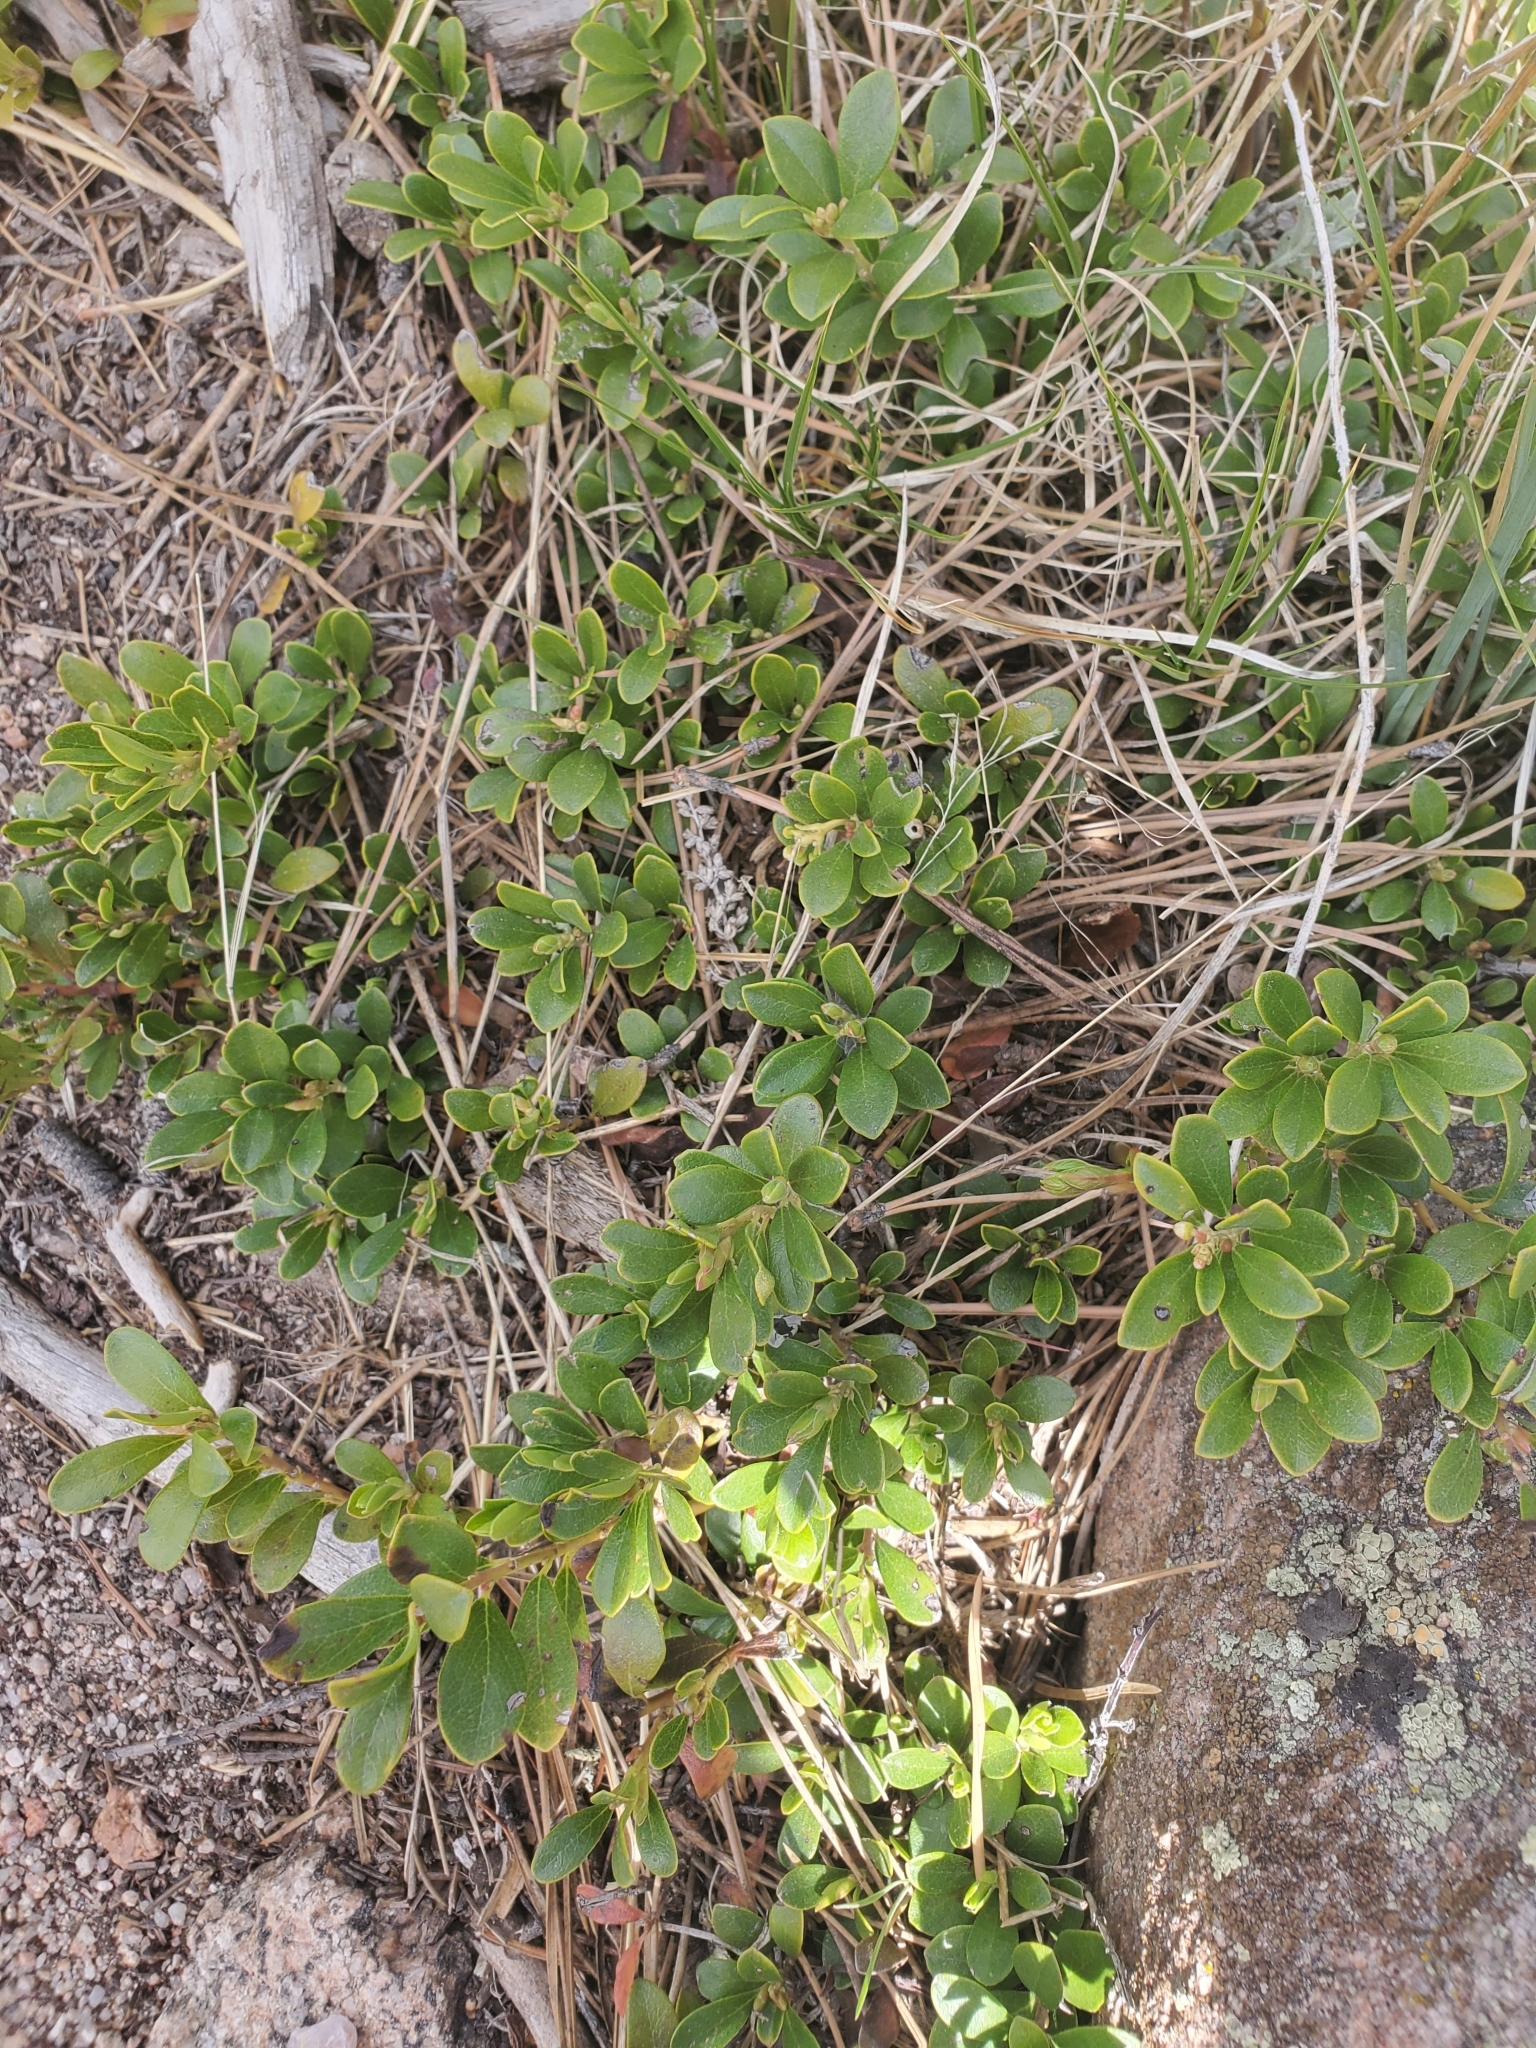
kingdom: Plantae
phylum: Tracheophyta
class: Magnoliopsida
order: Ericales
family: Ericaceae
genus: Arctostaphylos
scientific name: Arctostaphylos uva-ursi
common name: Bearberry
